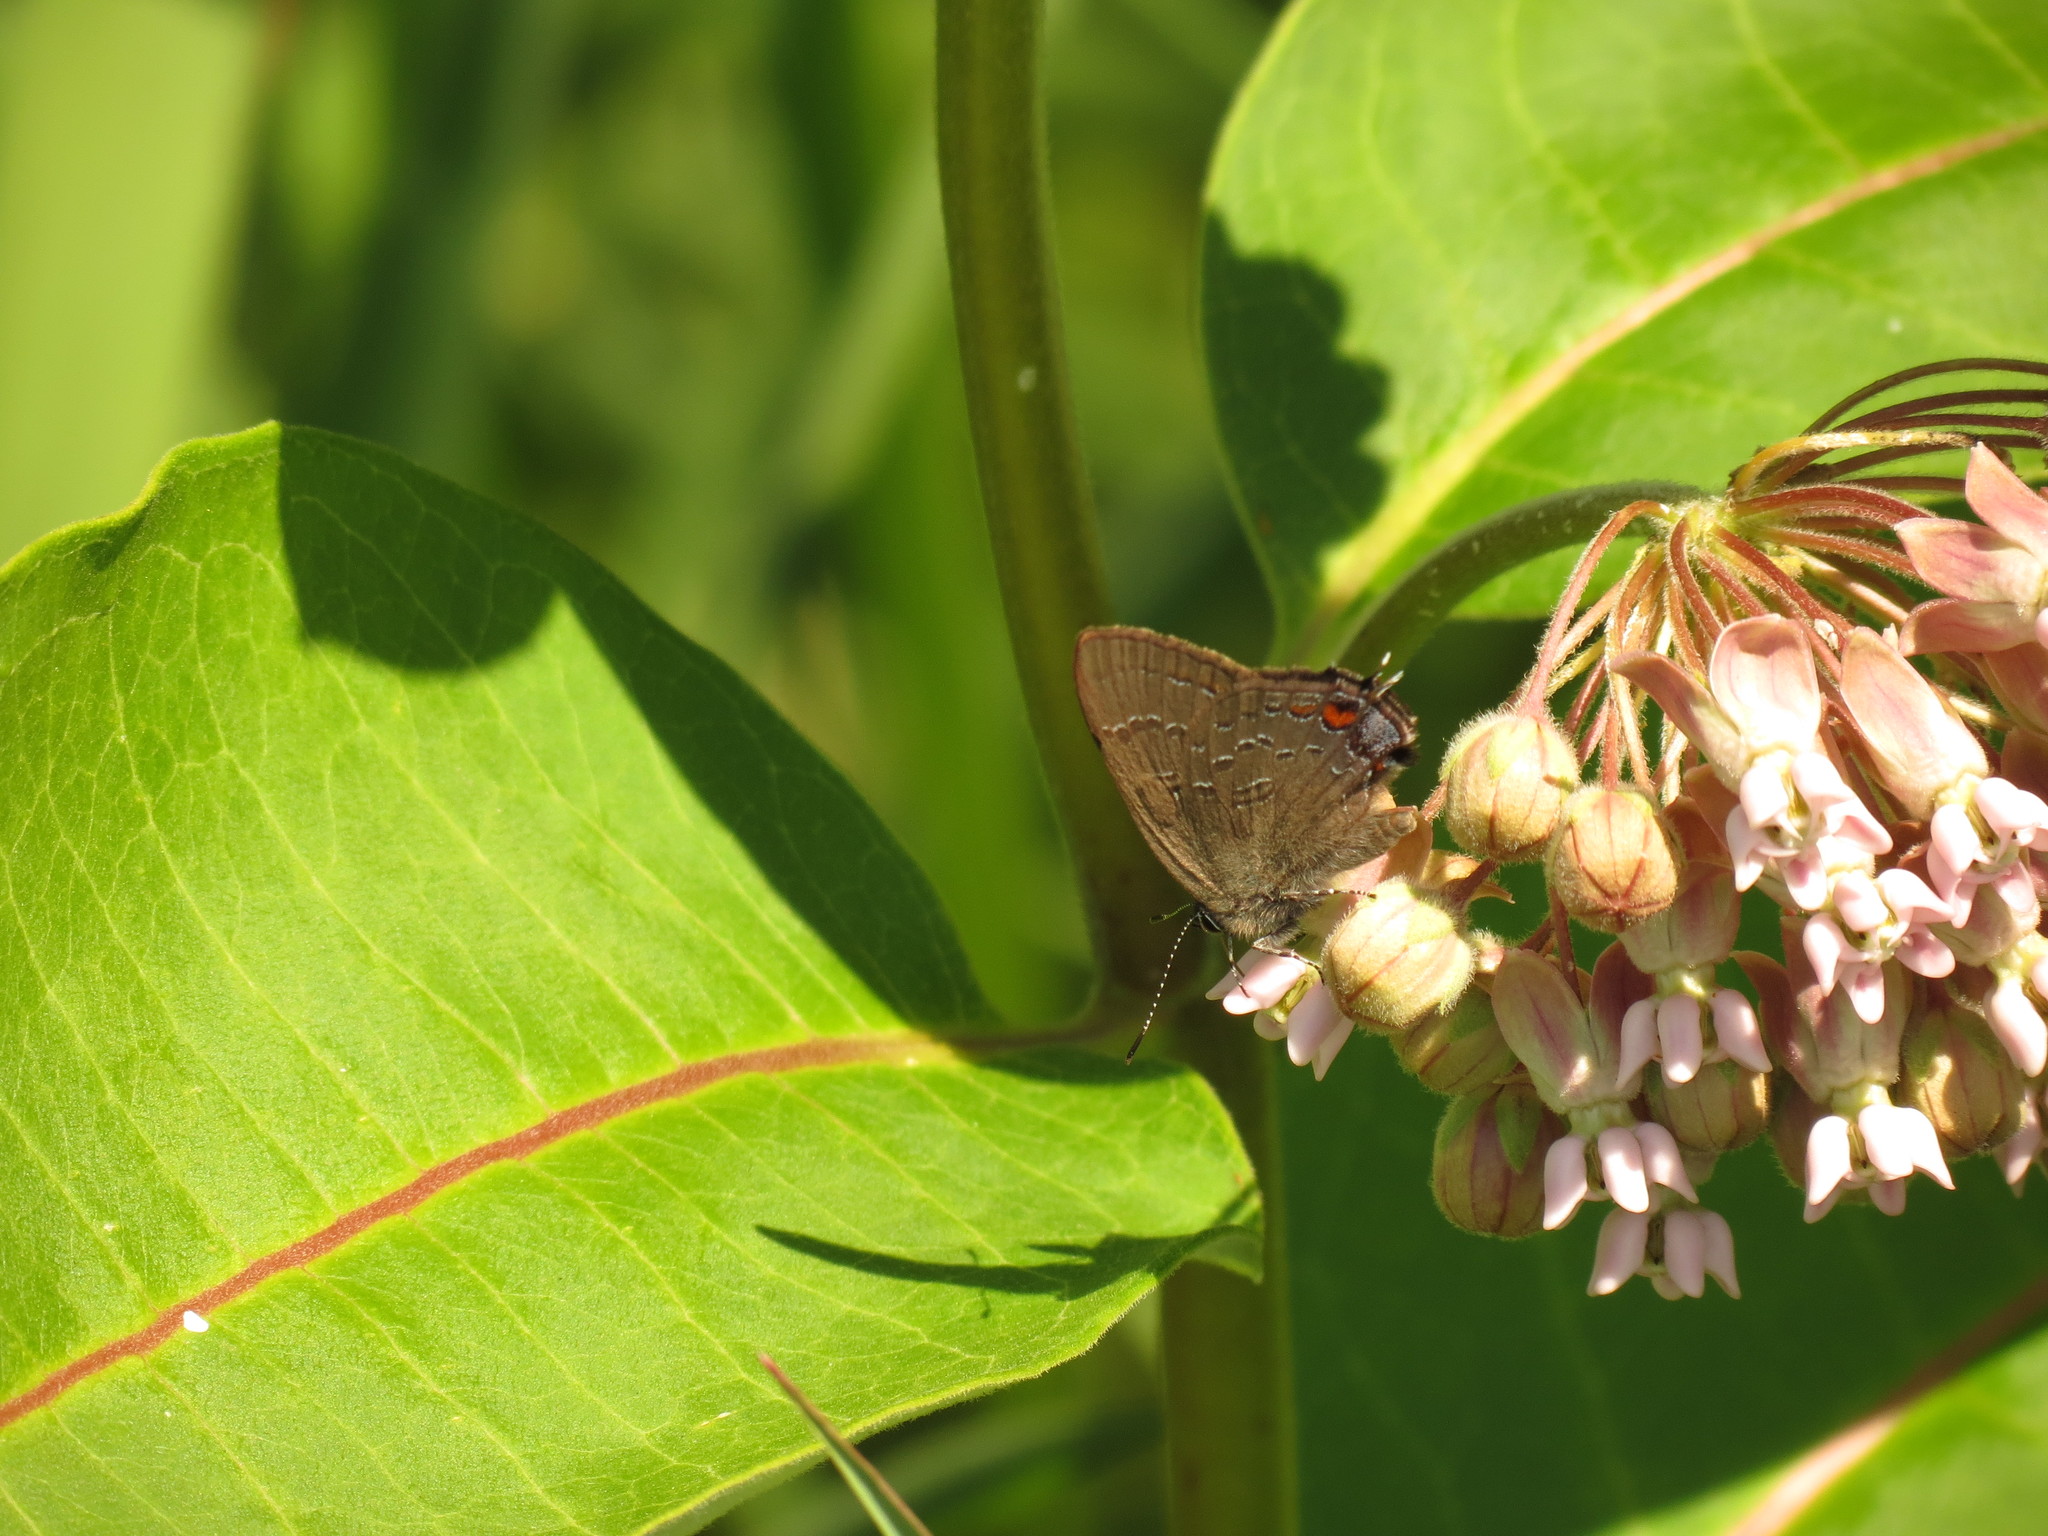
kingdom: Animalia
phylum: Arthropoda
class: Insecta
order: Lepidoptera
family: Lycaenidae
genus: Satyrium
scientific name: Satyrium calanus
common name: Banded hairstreak
